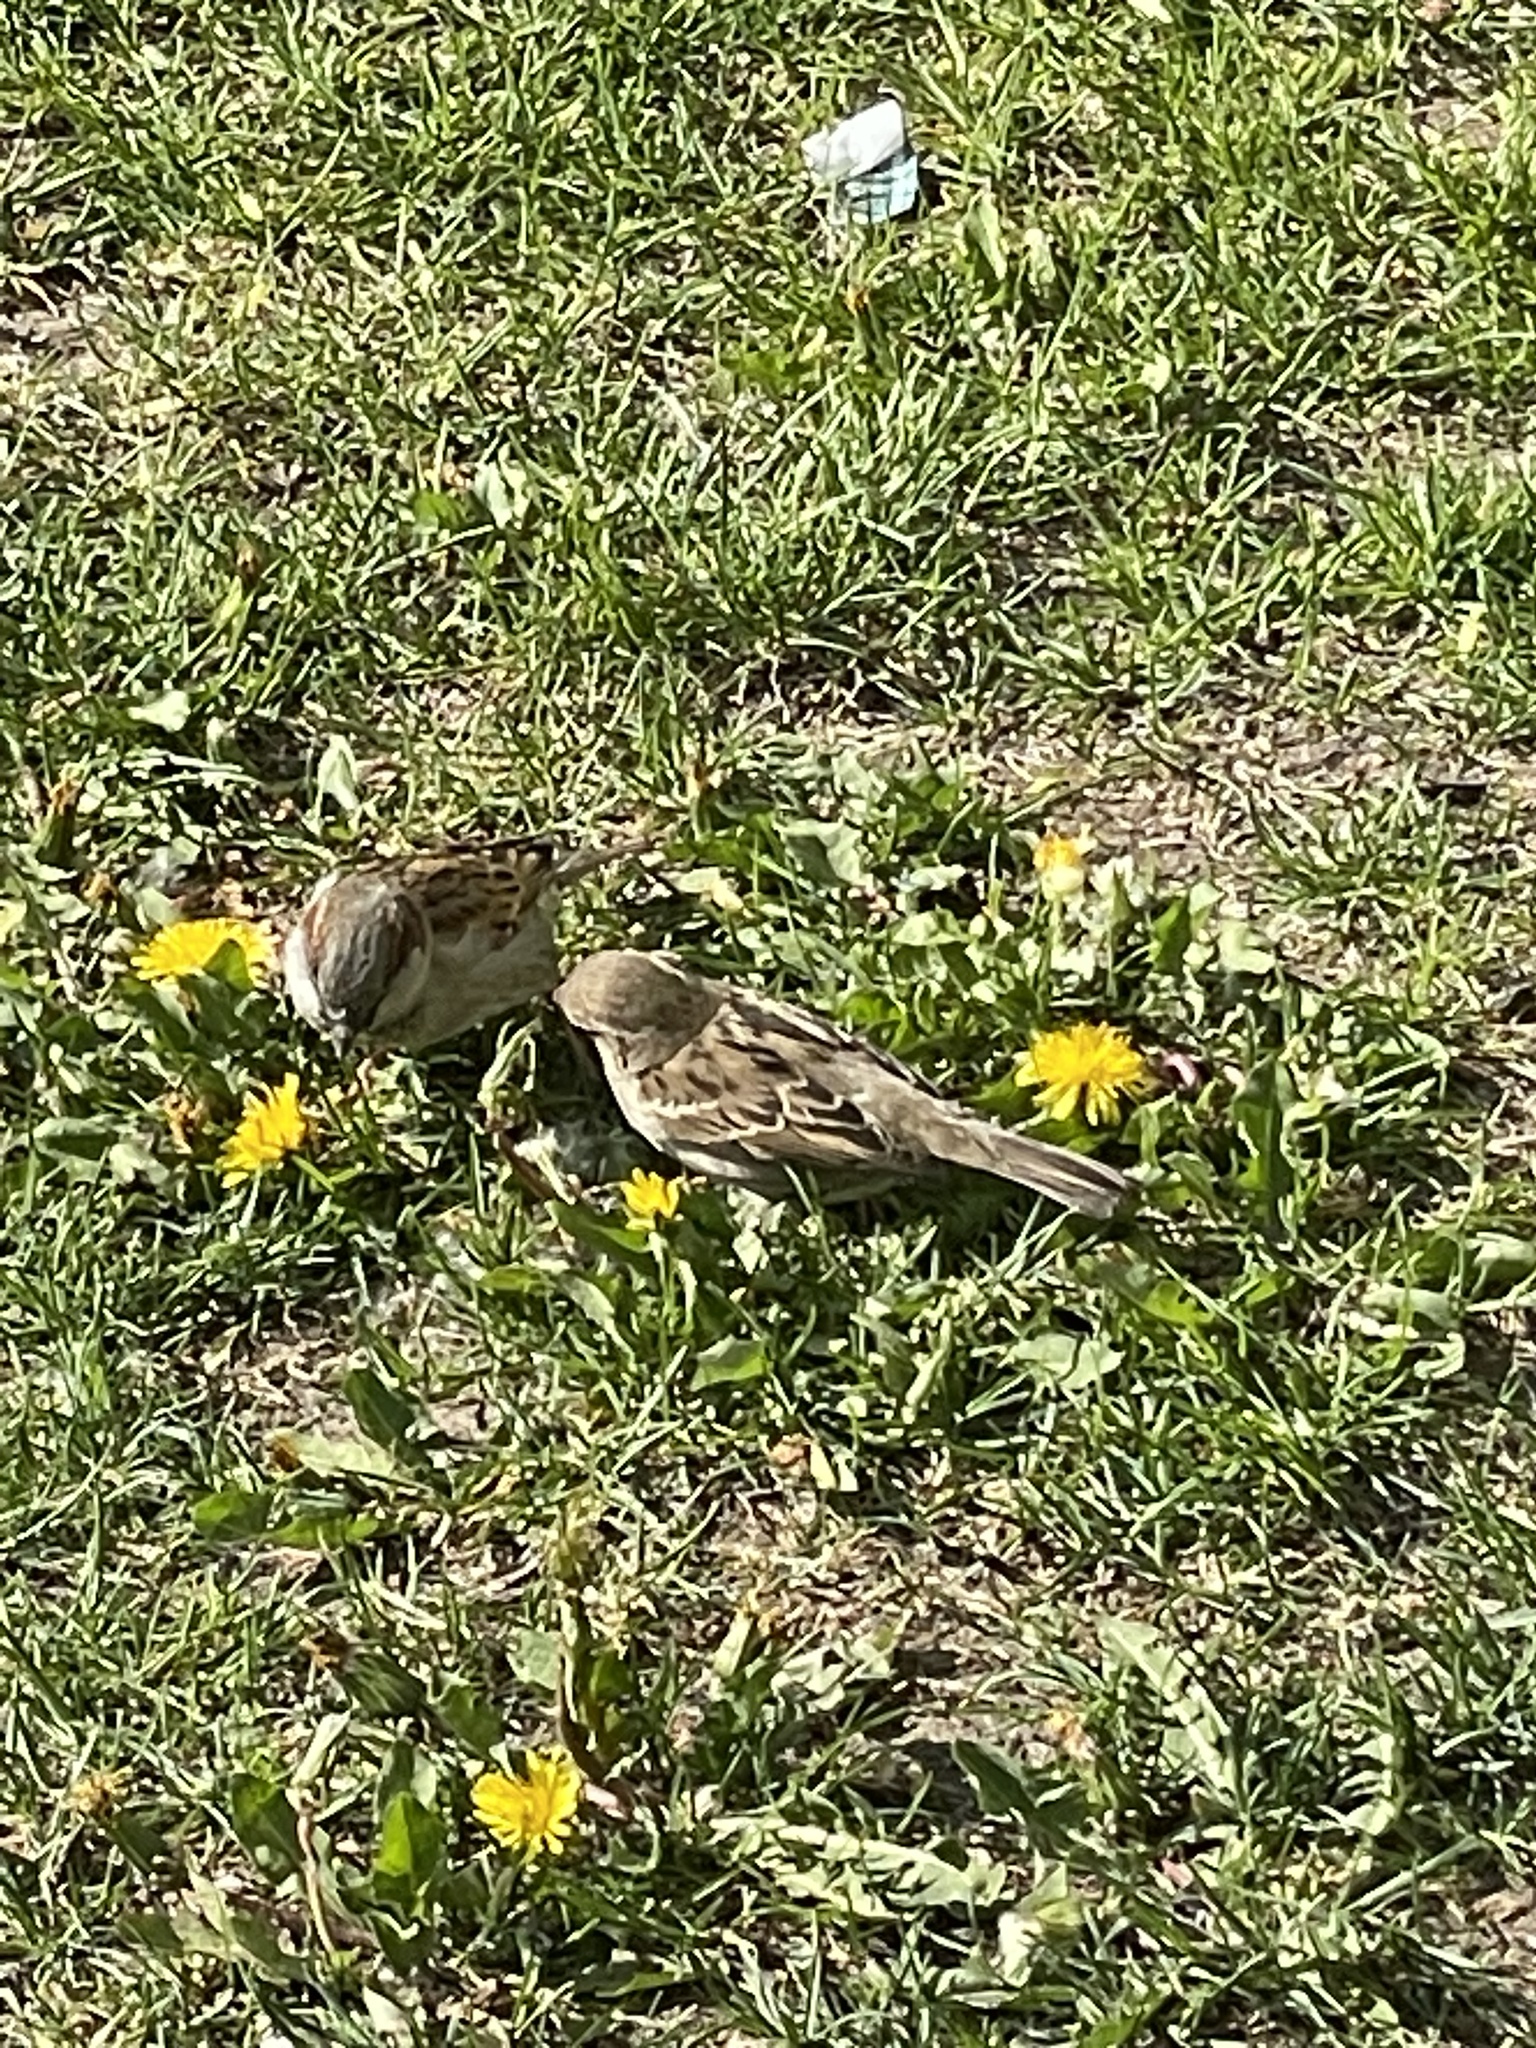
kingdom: Animalia
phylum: Chordata
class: Aves
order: Passeriformes
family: Passeridae
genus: Passer
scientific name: Passer domesticus
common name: House sparrow
